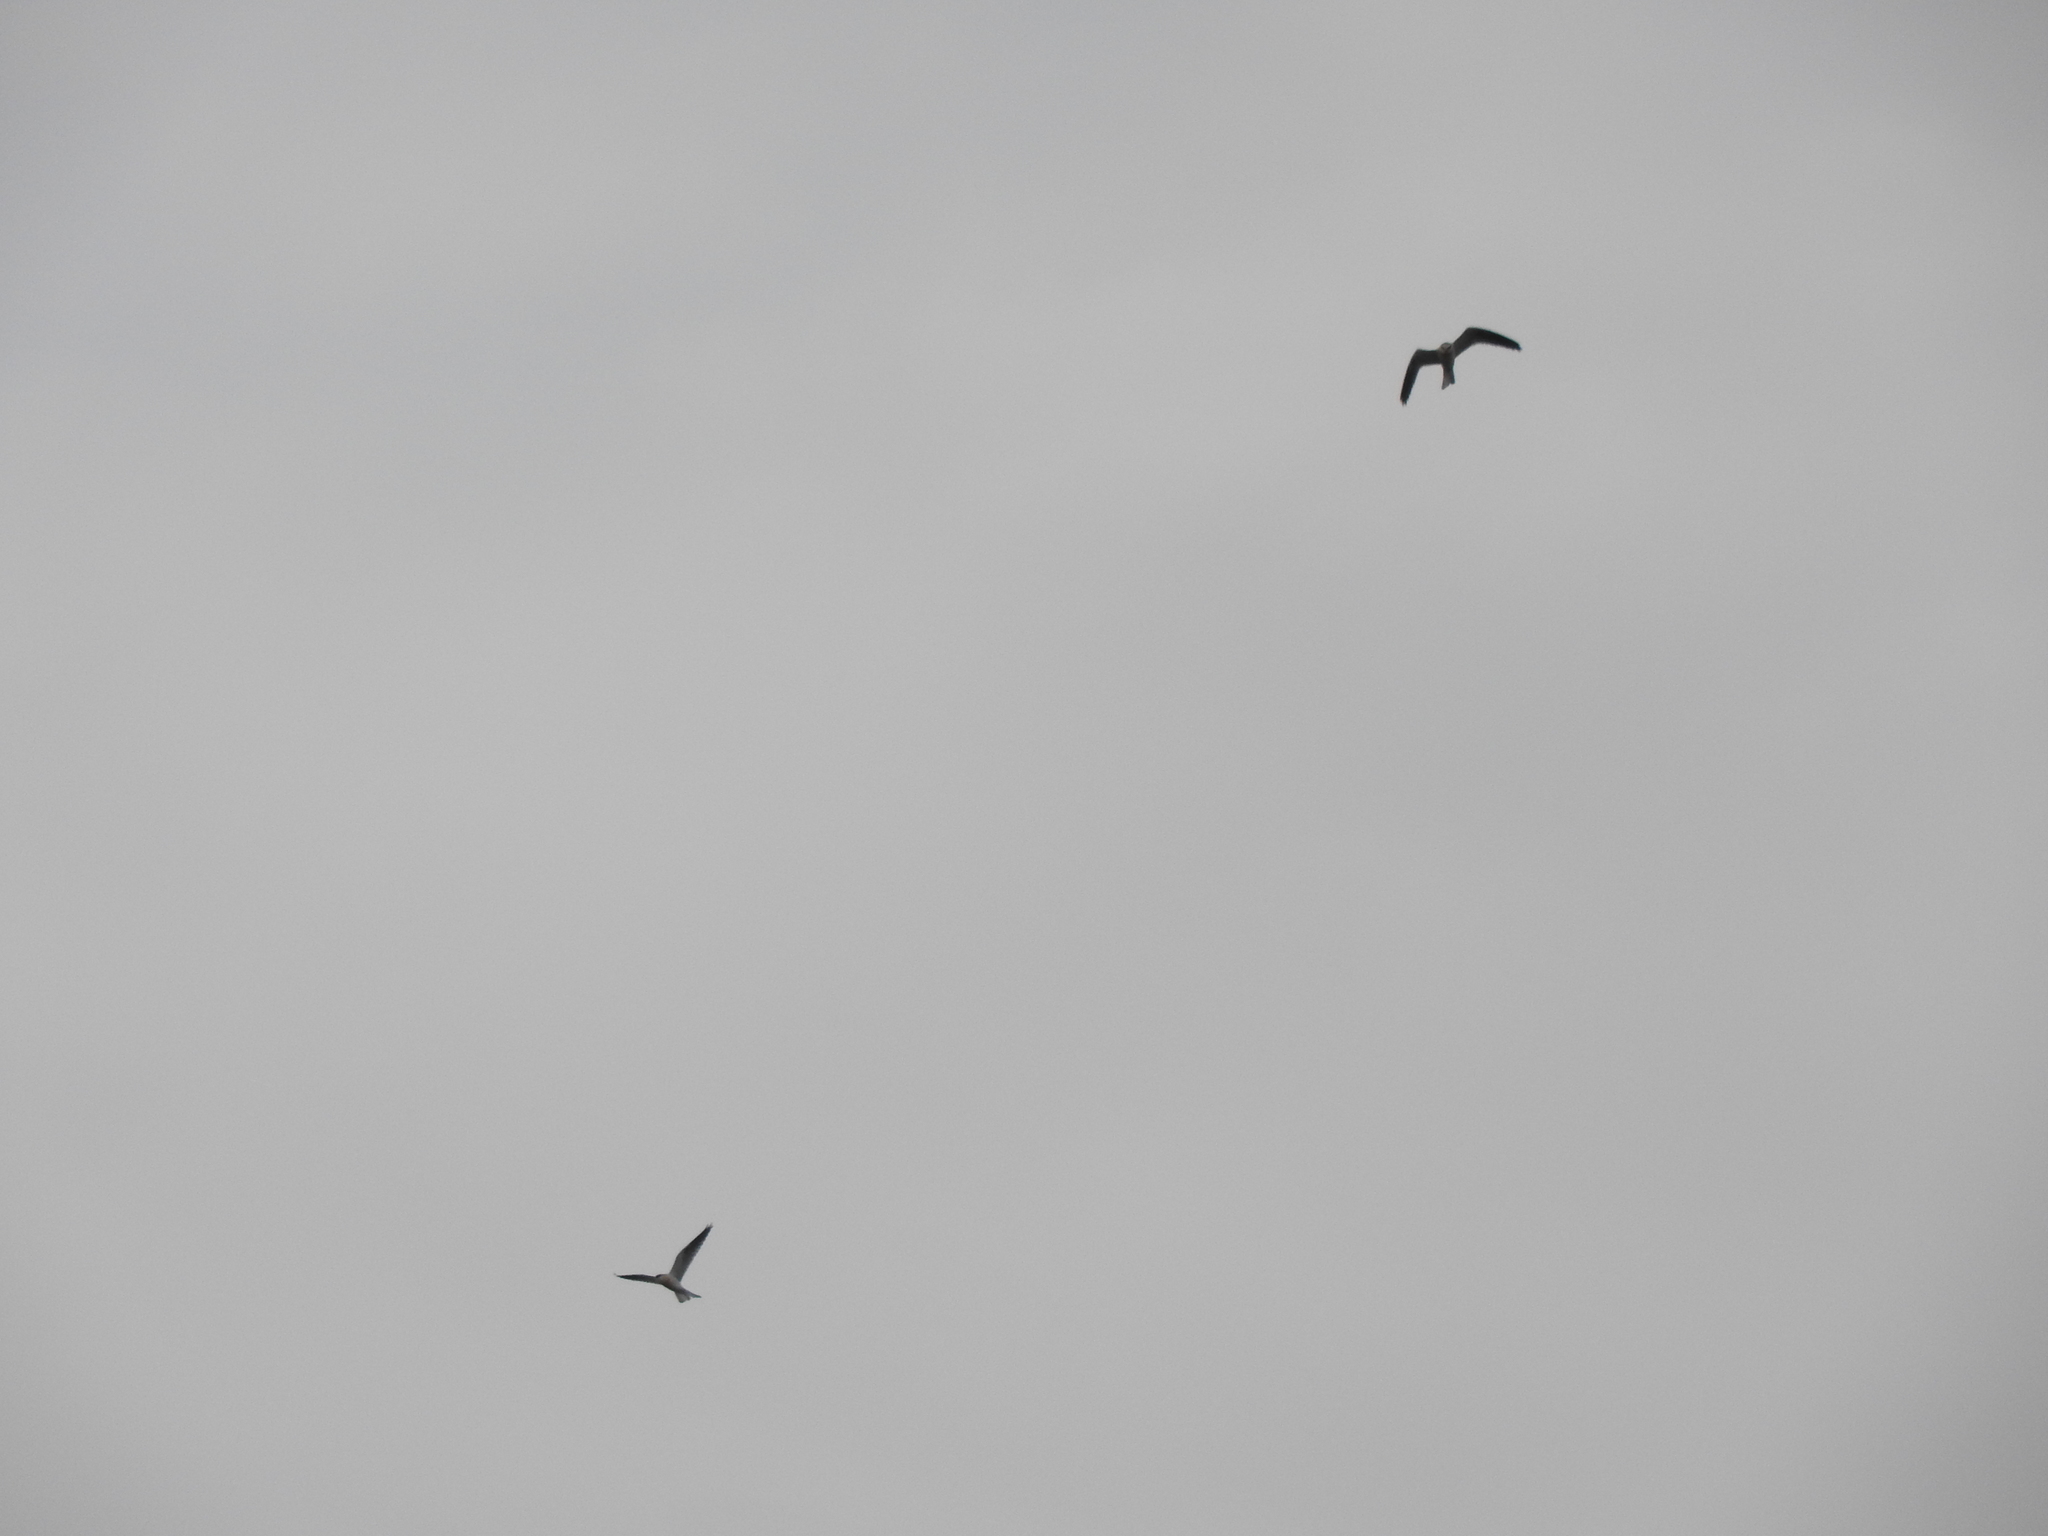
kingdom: Animalia
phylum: Chordata
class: Aves
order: Accipitriformes
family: Accipitridae
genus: Elanus
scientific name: Elanus leucurus
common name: White-tailed kite
